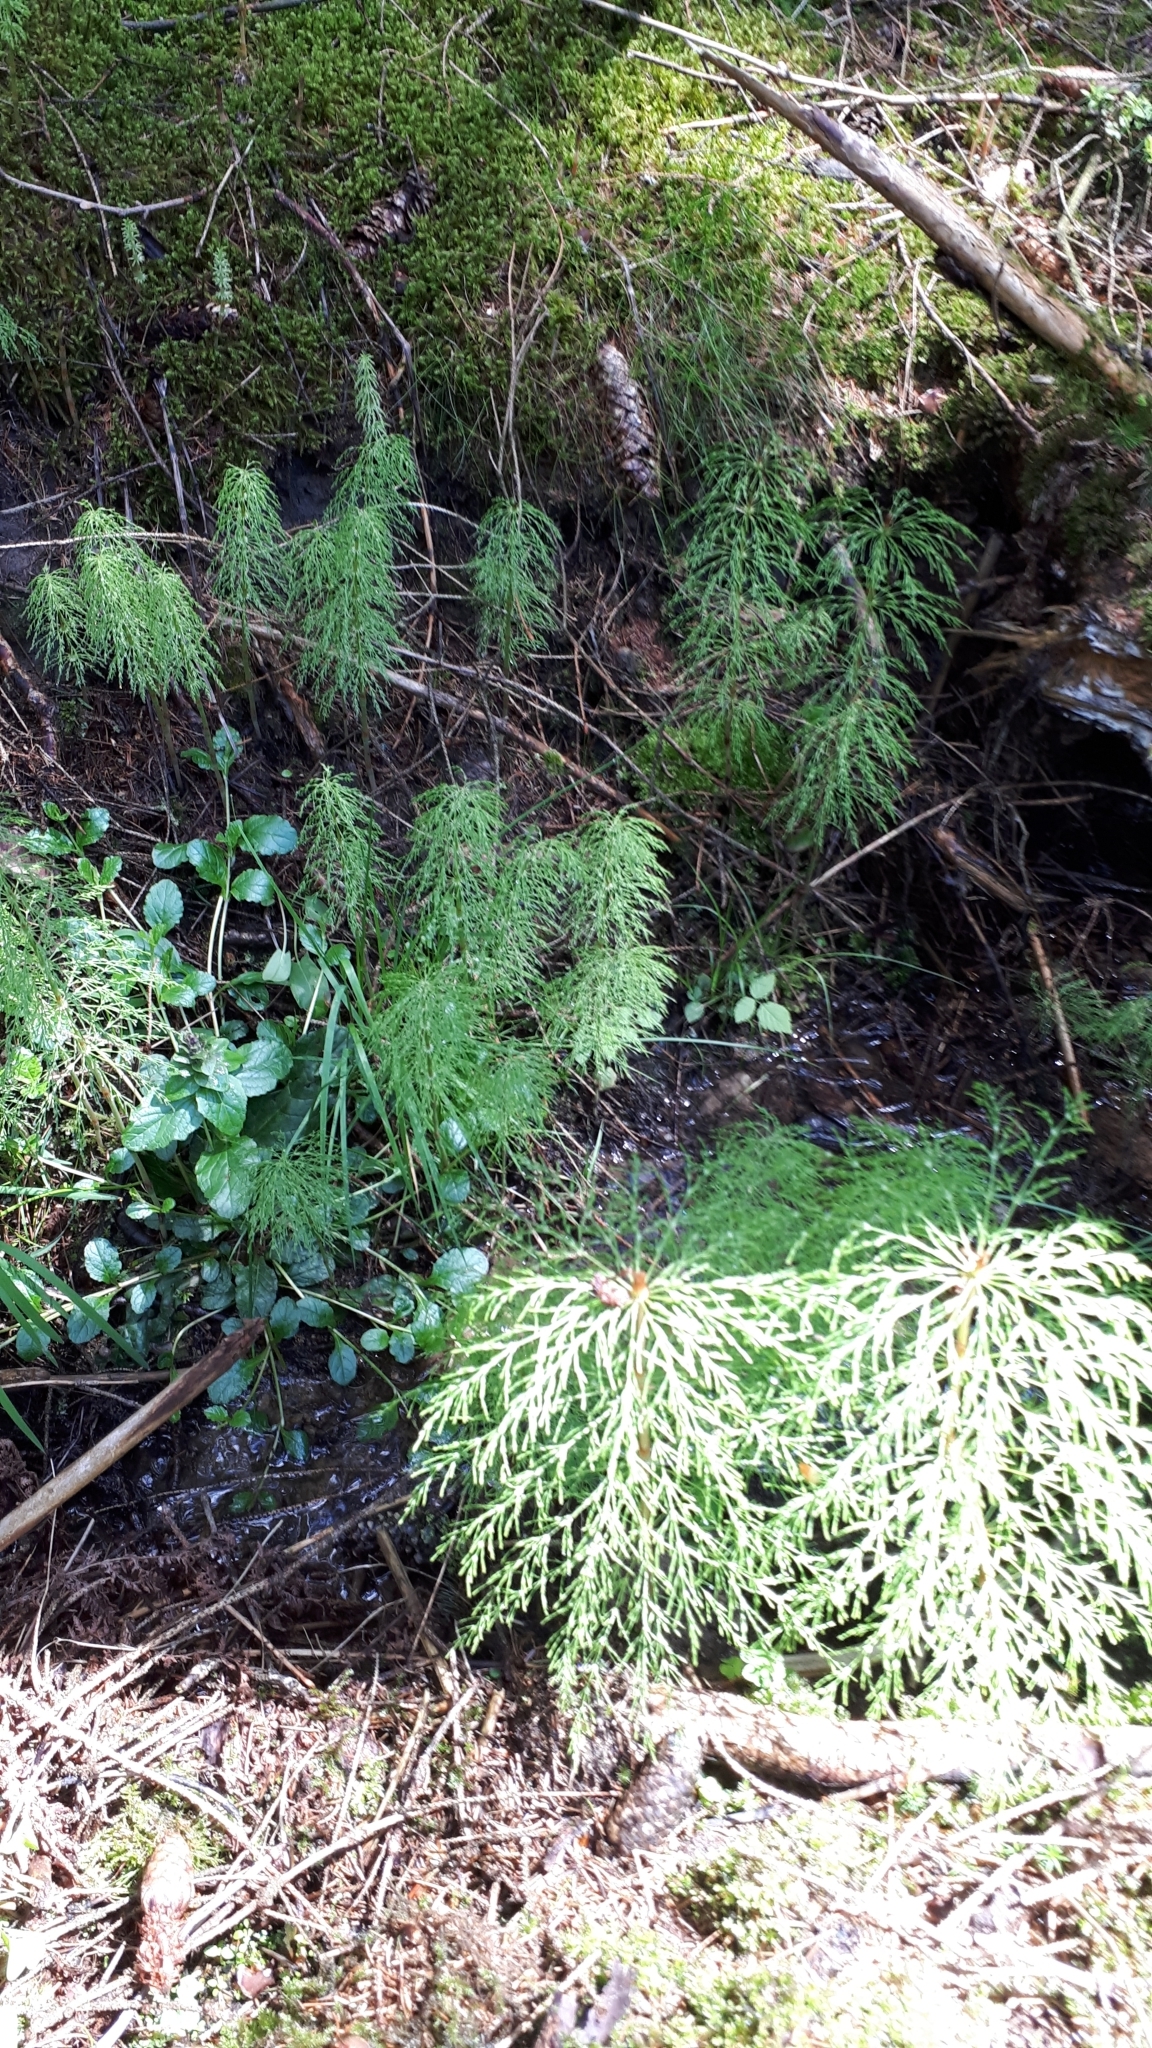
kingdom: Plantae
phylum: Tracheophyta
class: Polypodiopsida
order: Equisetales
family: Equisetaceae
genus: Equisetum
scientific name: Equisetum sylvaticum
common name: Wood horsetail
